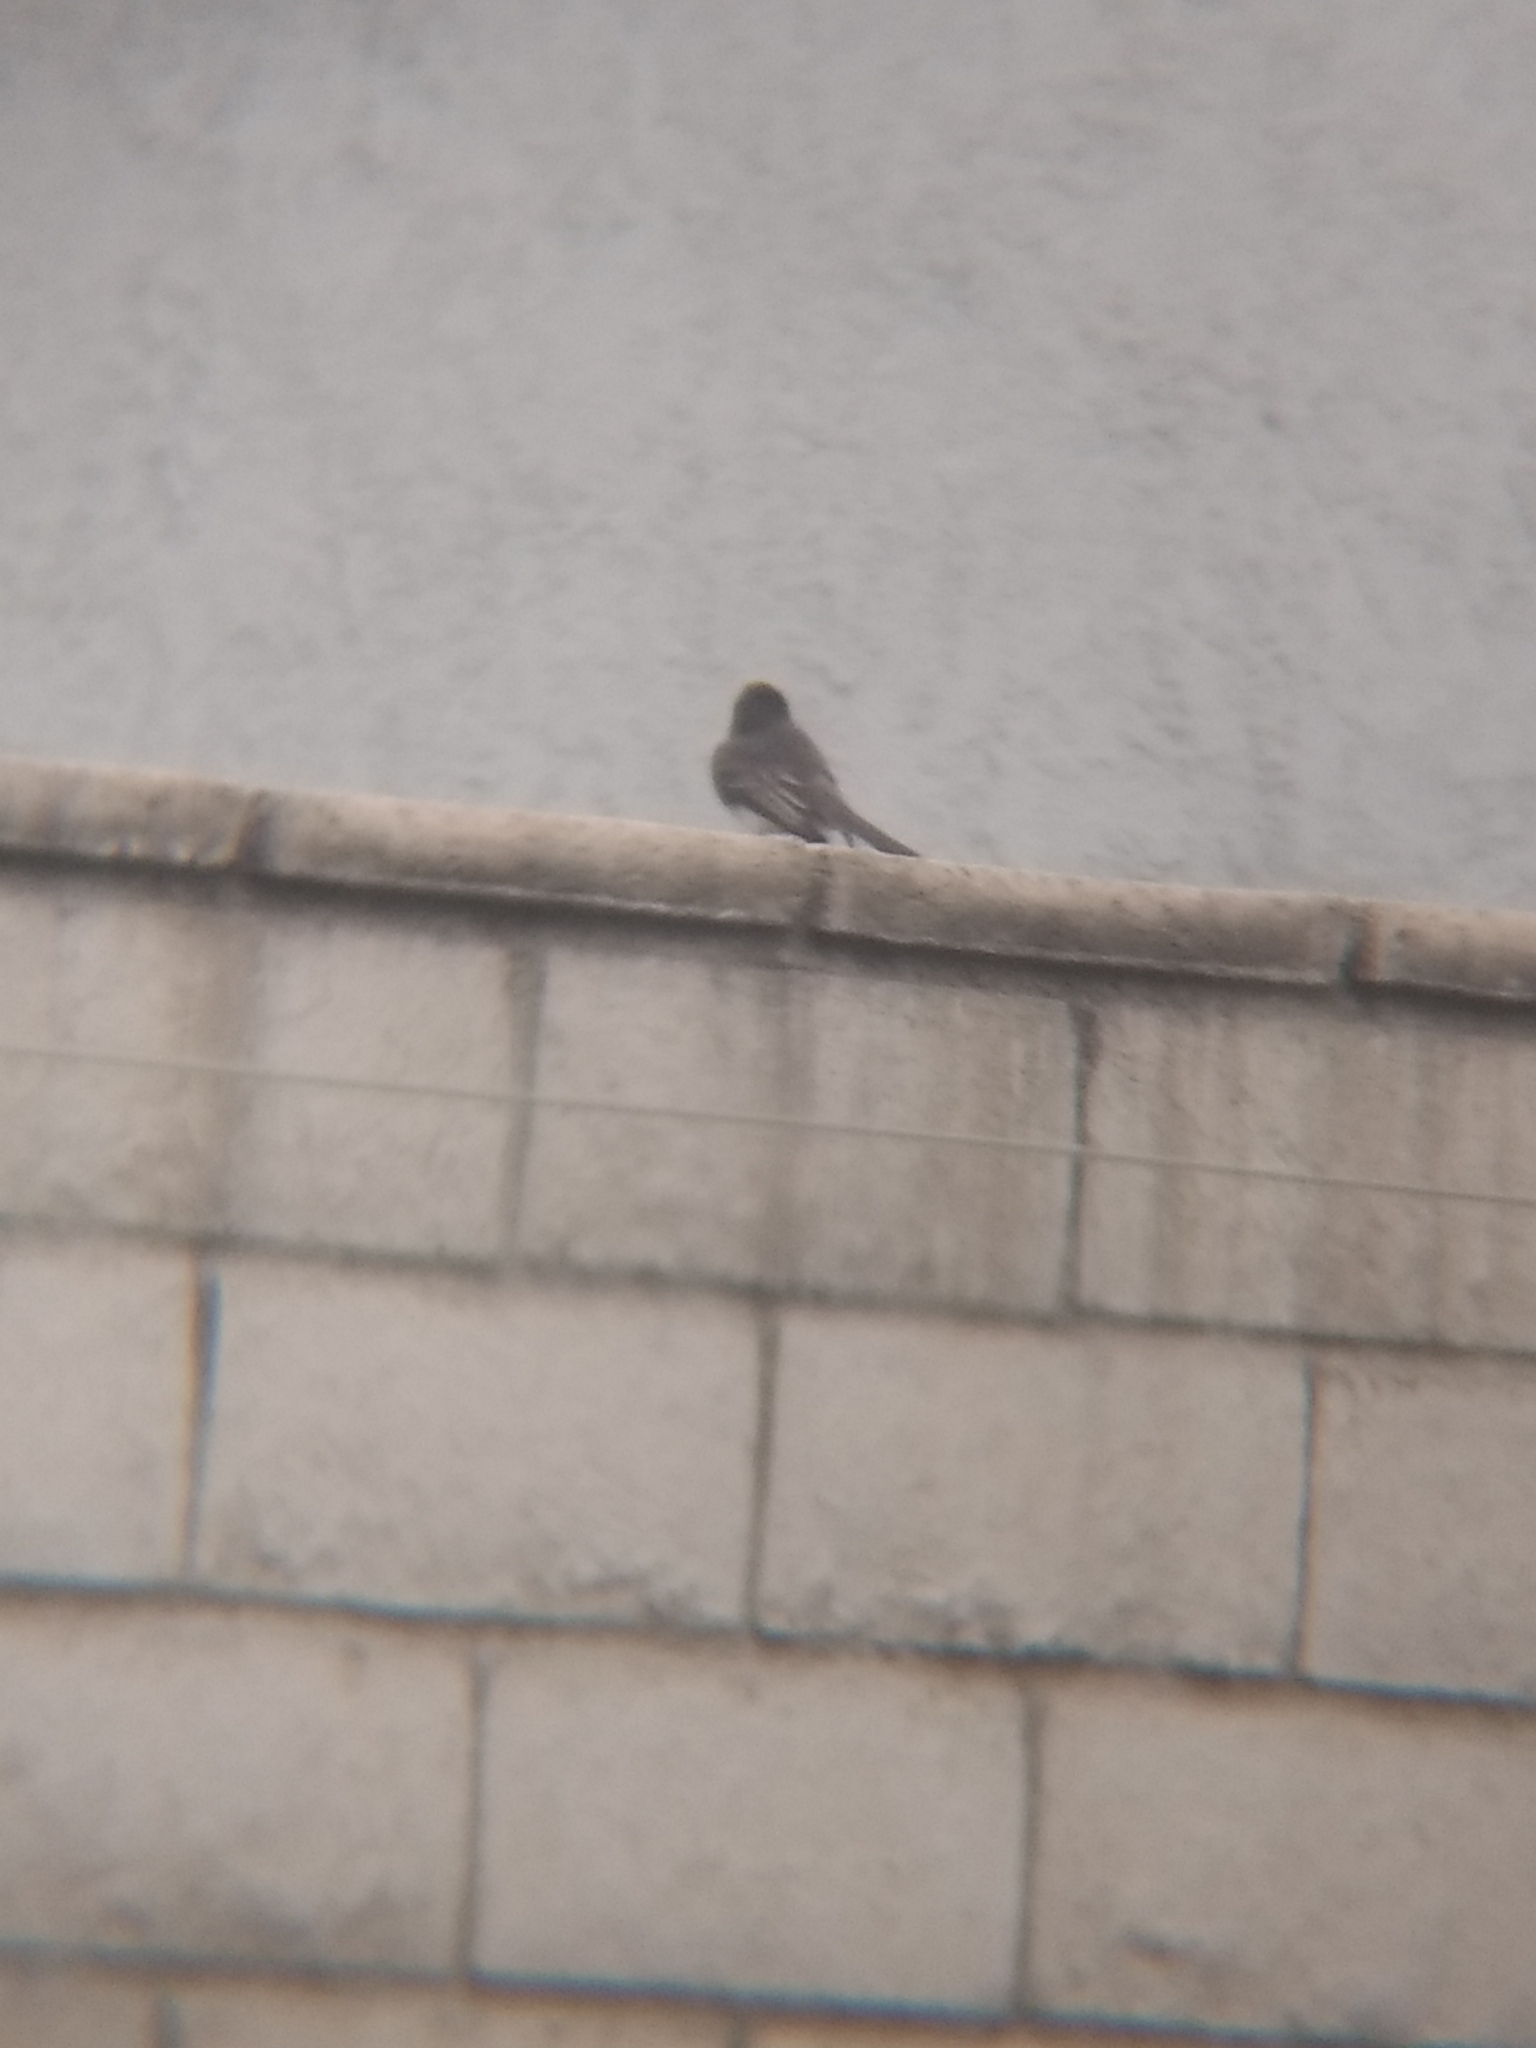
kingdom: Animalia
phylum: Chordata
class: Aves
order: Passeriformes
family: Tyrannidae
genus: Sayornis
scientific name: Sayornis nigricans
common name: Black phoebe
